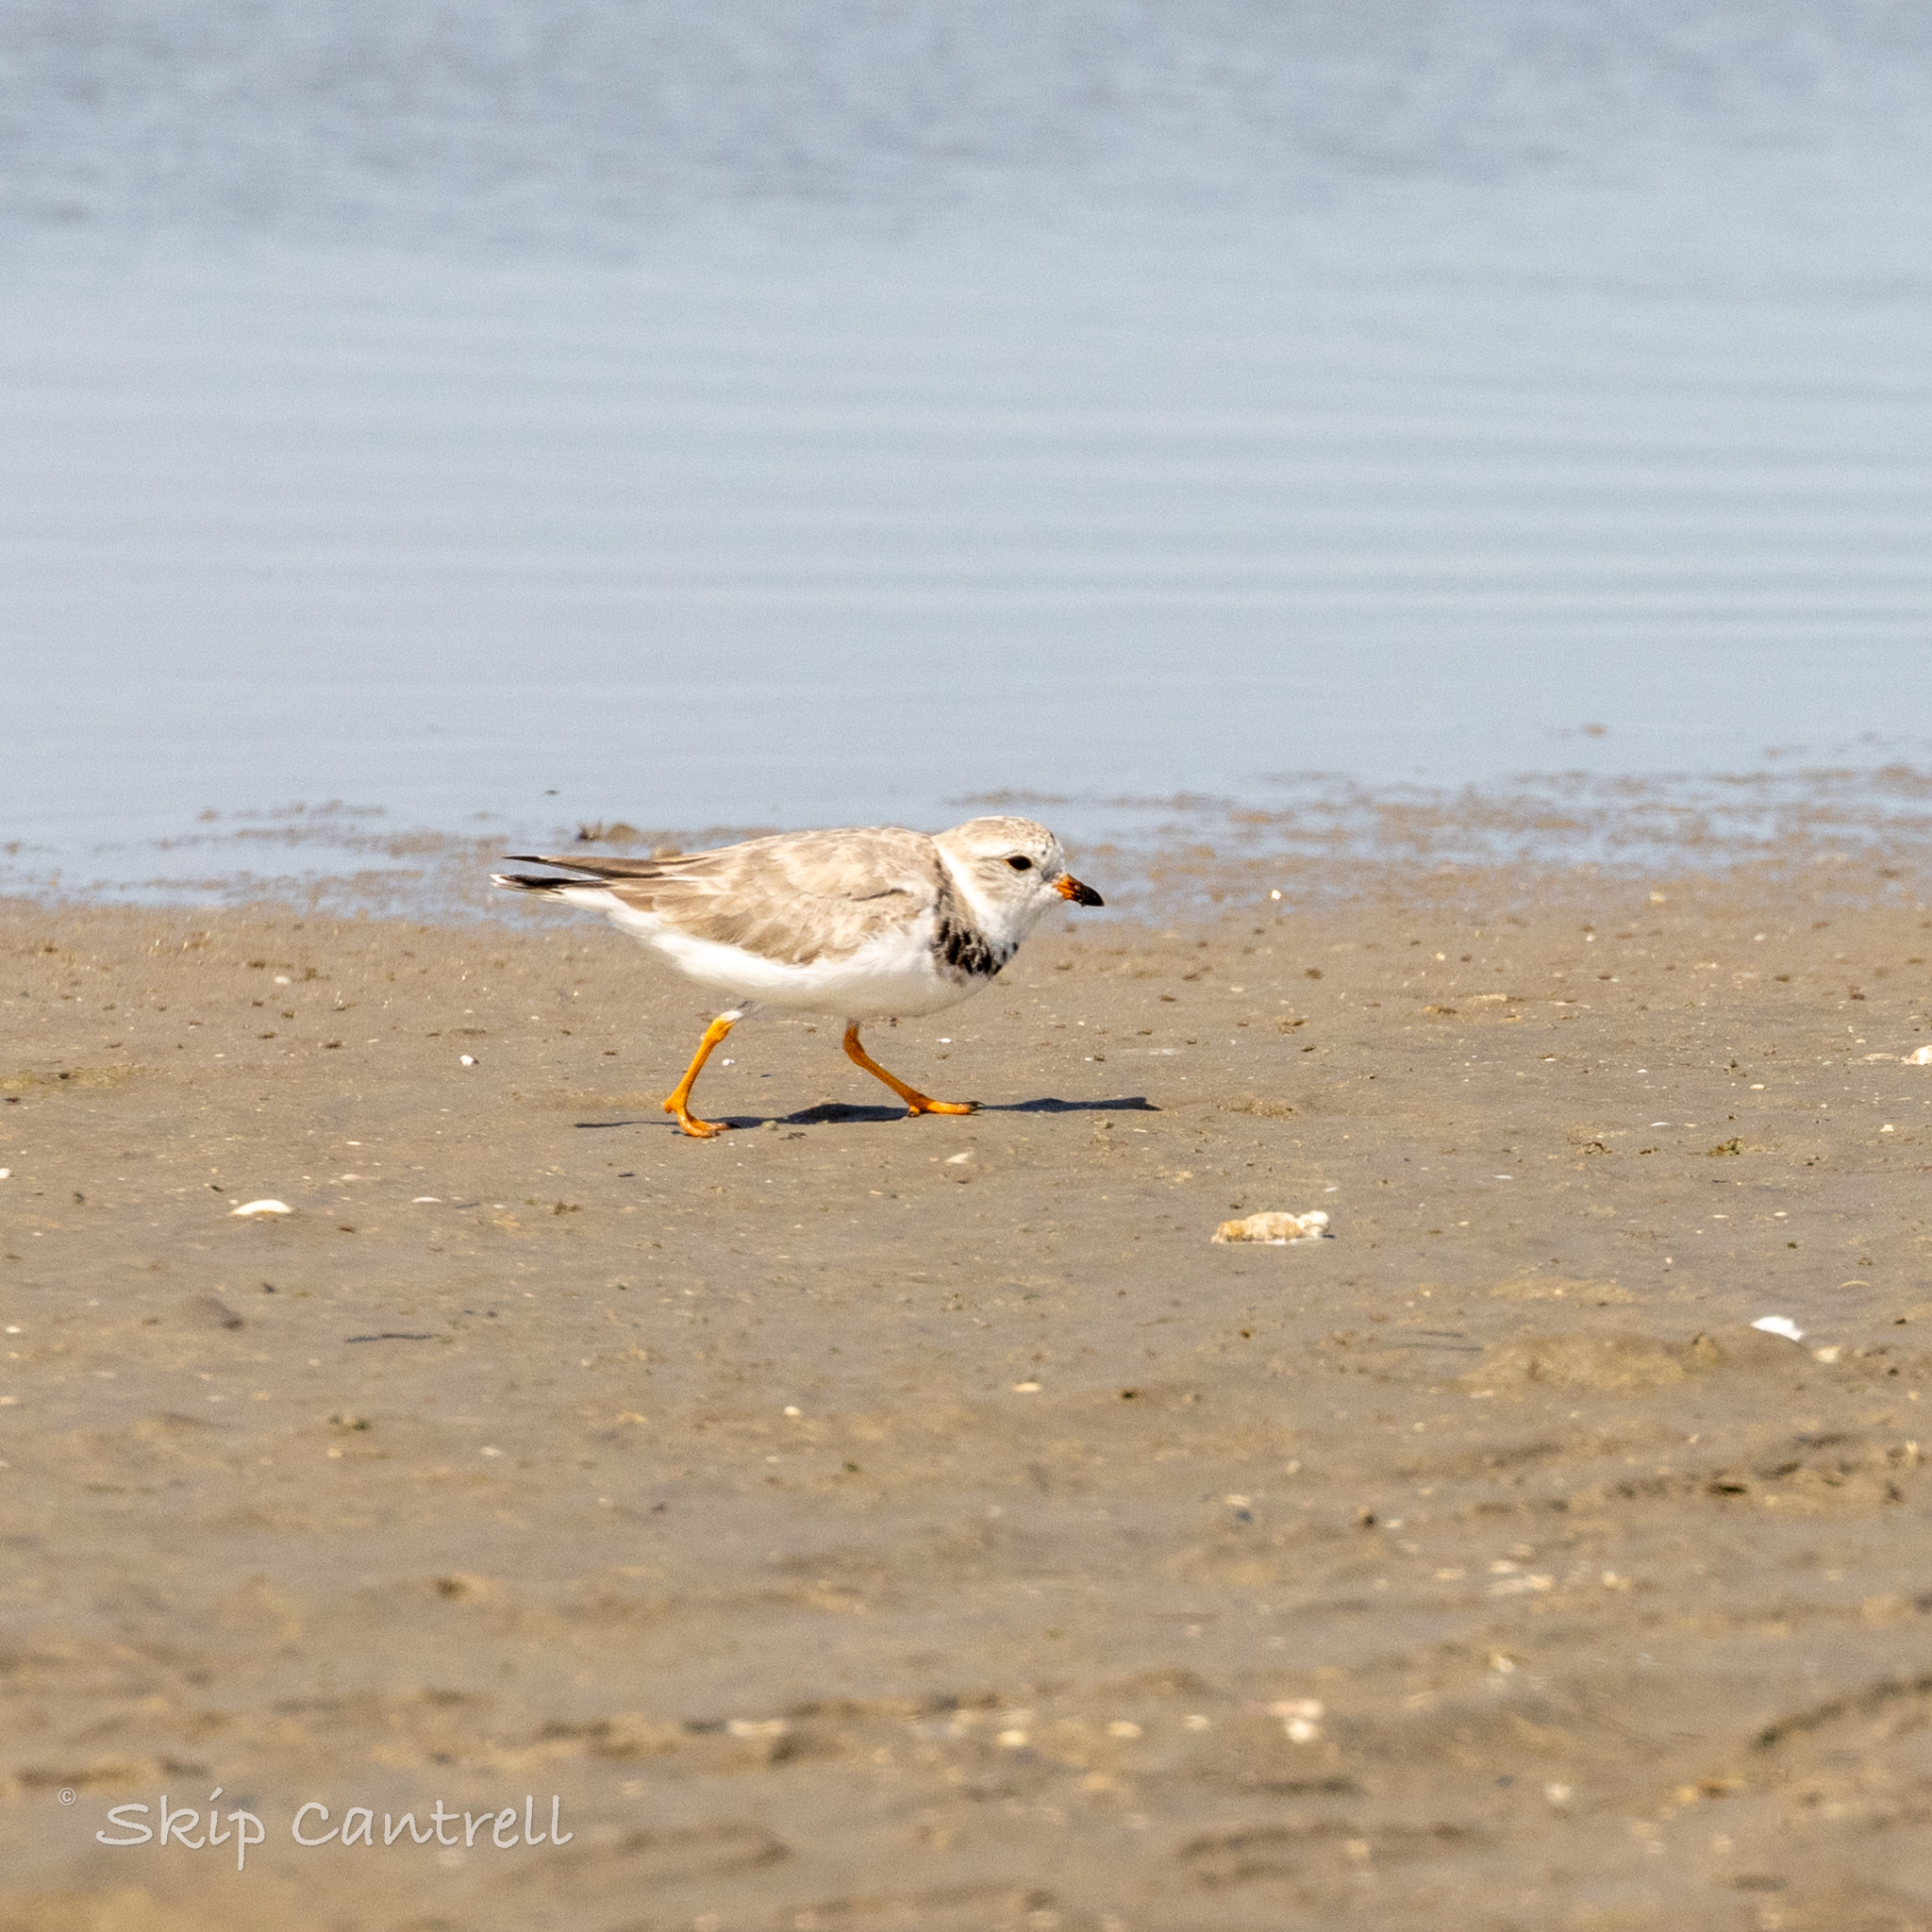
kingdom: Animalia
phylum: Chordata
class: Aves
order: Charadriiformes
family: Charadriidae
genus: Charadrius
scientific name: Charadrius melodus
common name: Piping plover
